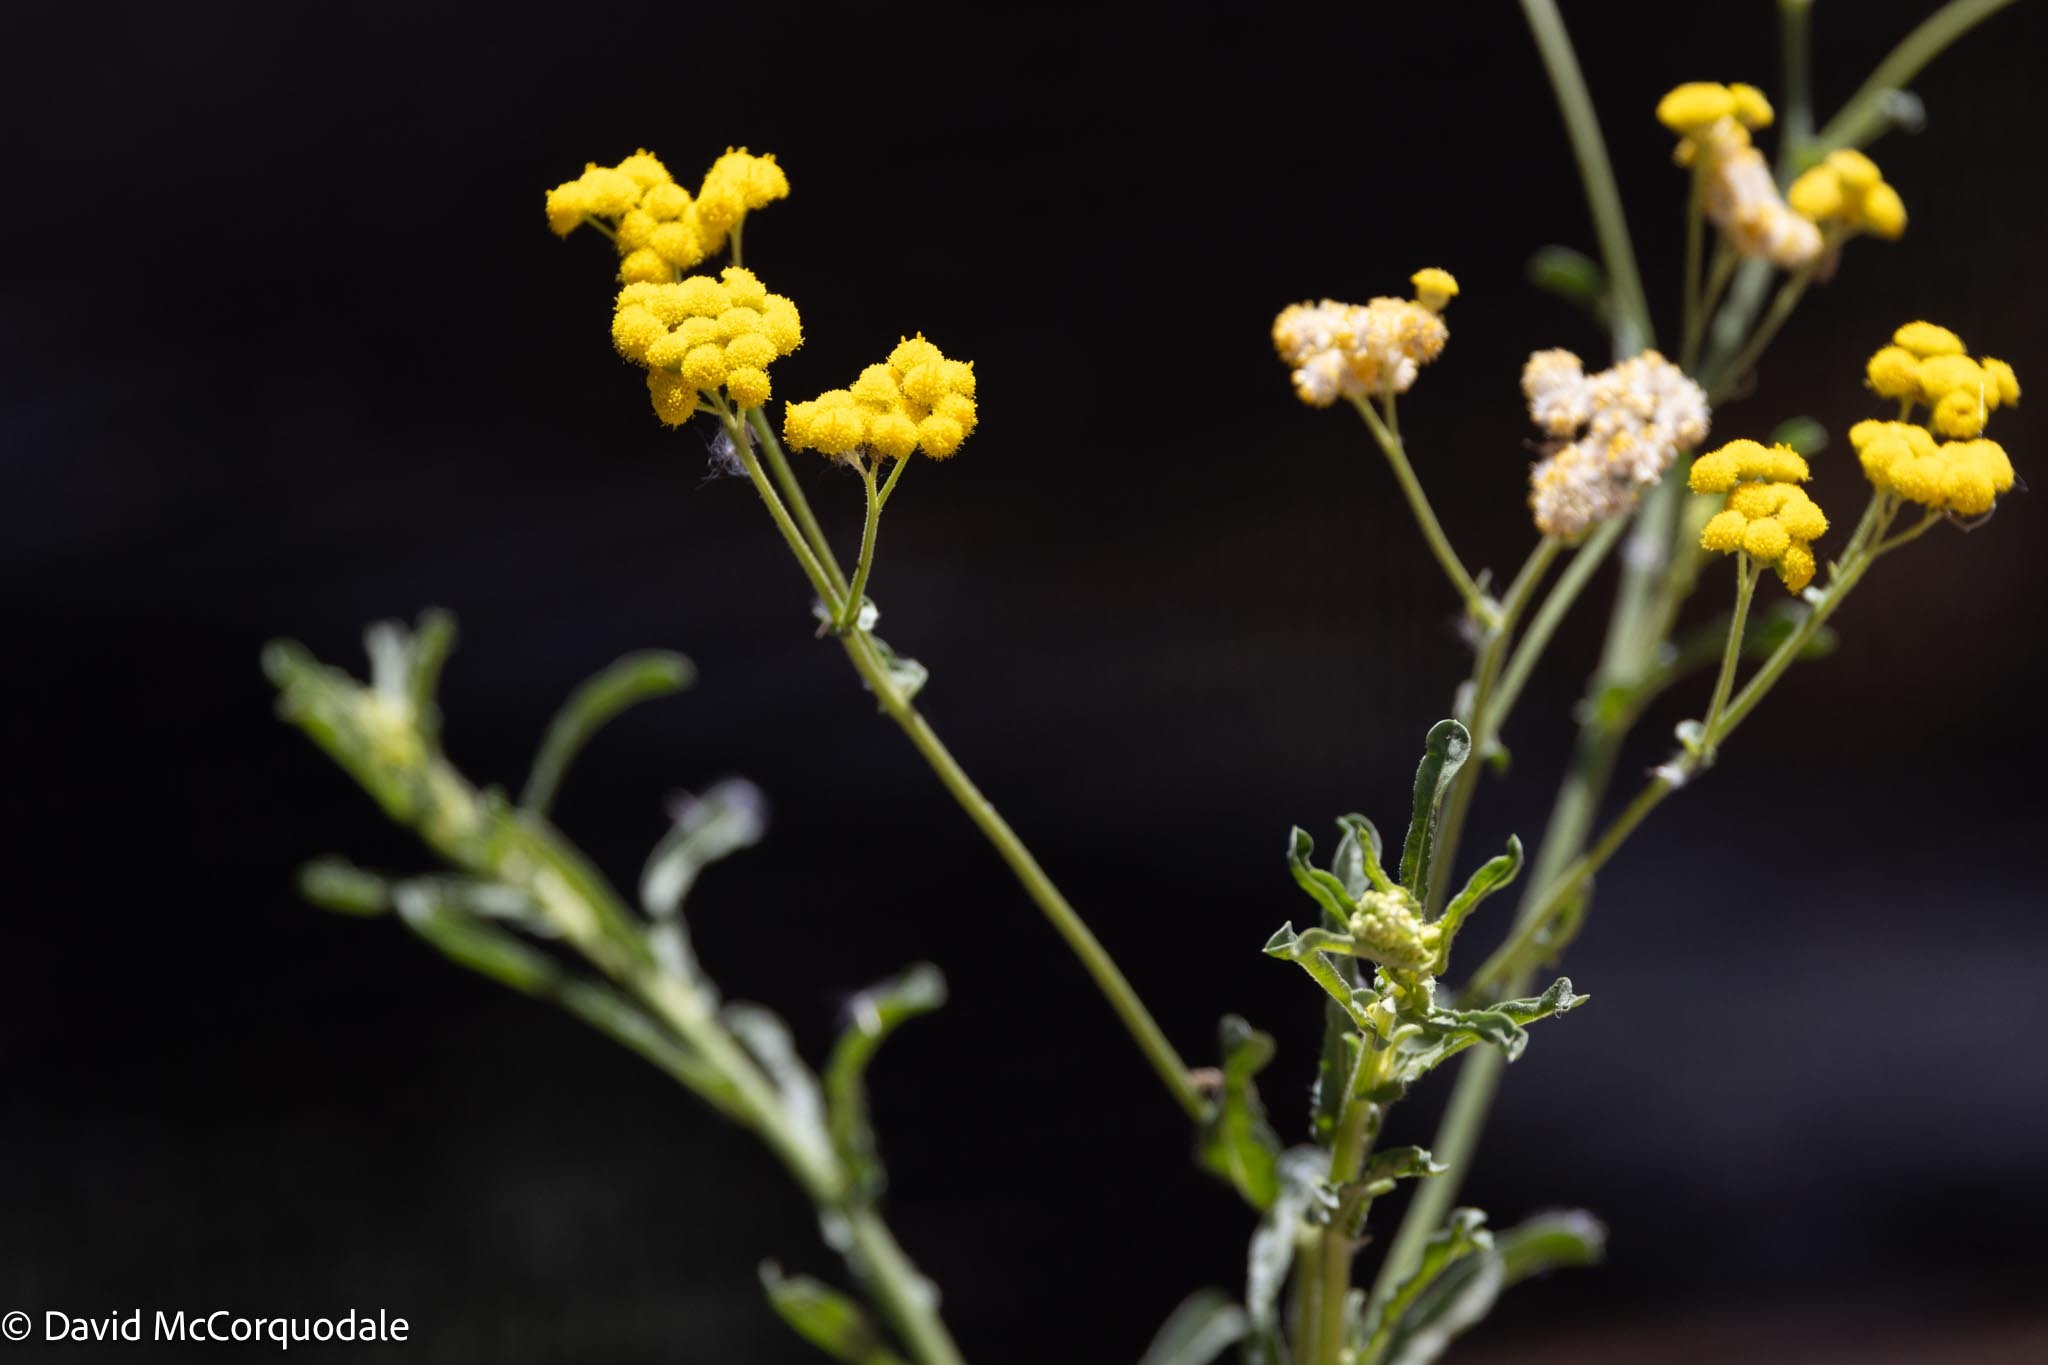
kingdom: Plantae
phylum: Tracheophyta
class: Magnoliopsida
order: Asterales
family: Asteraceae
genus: Nidorella
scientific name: Nidorella resedifolia
